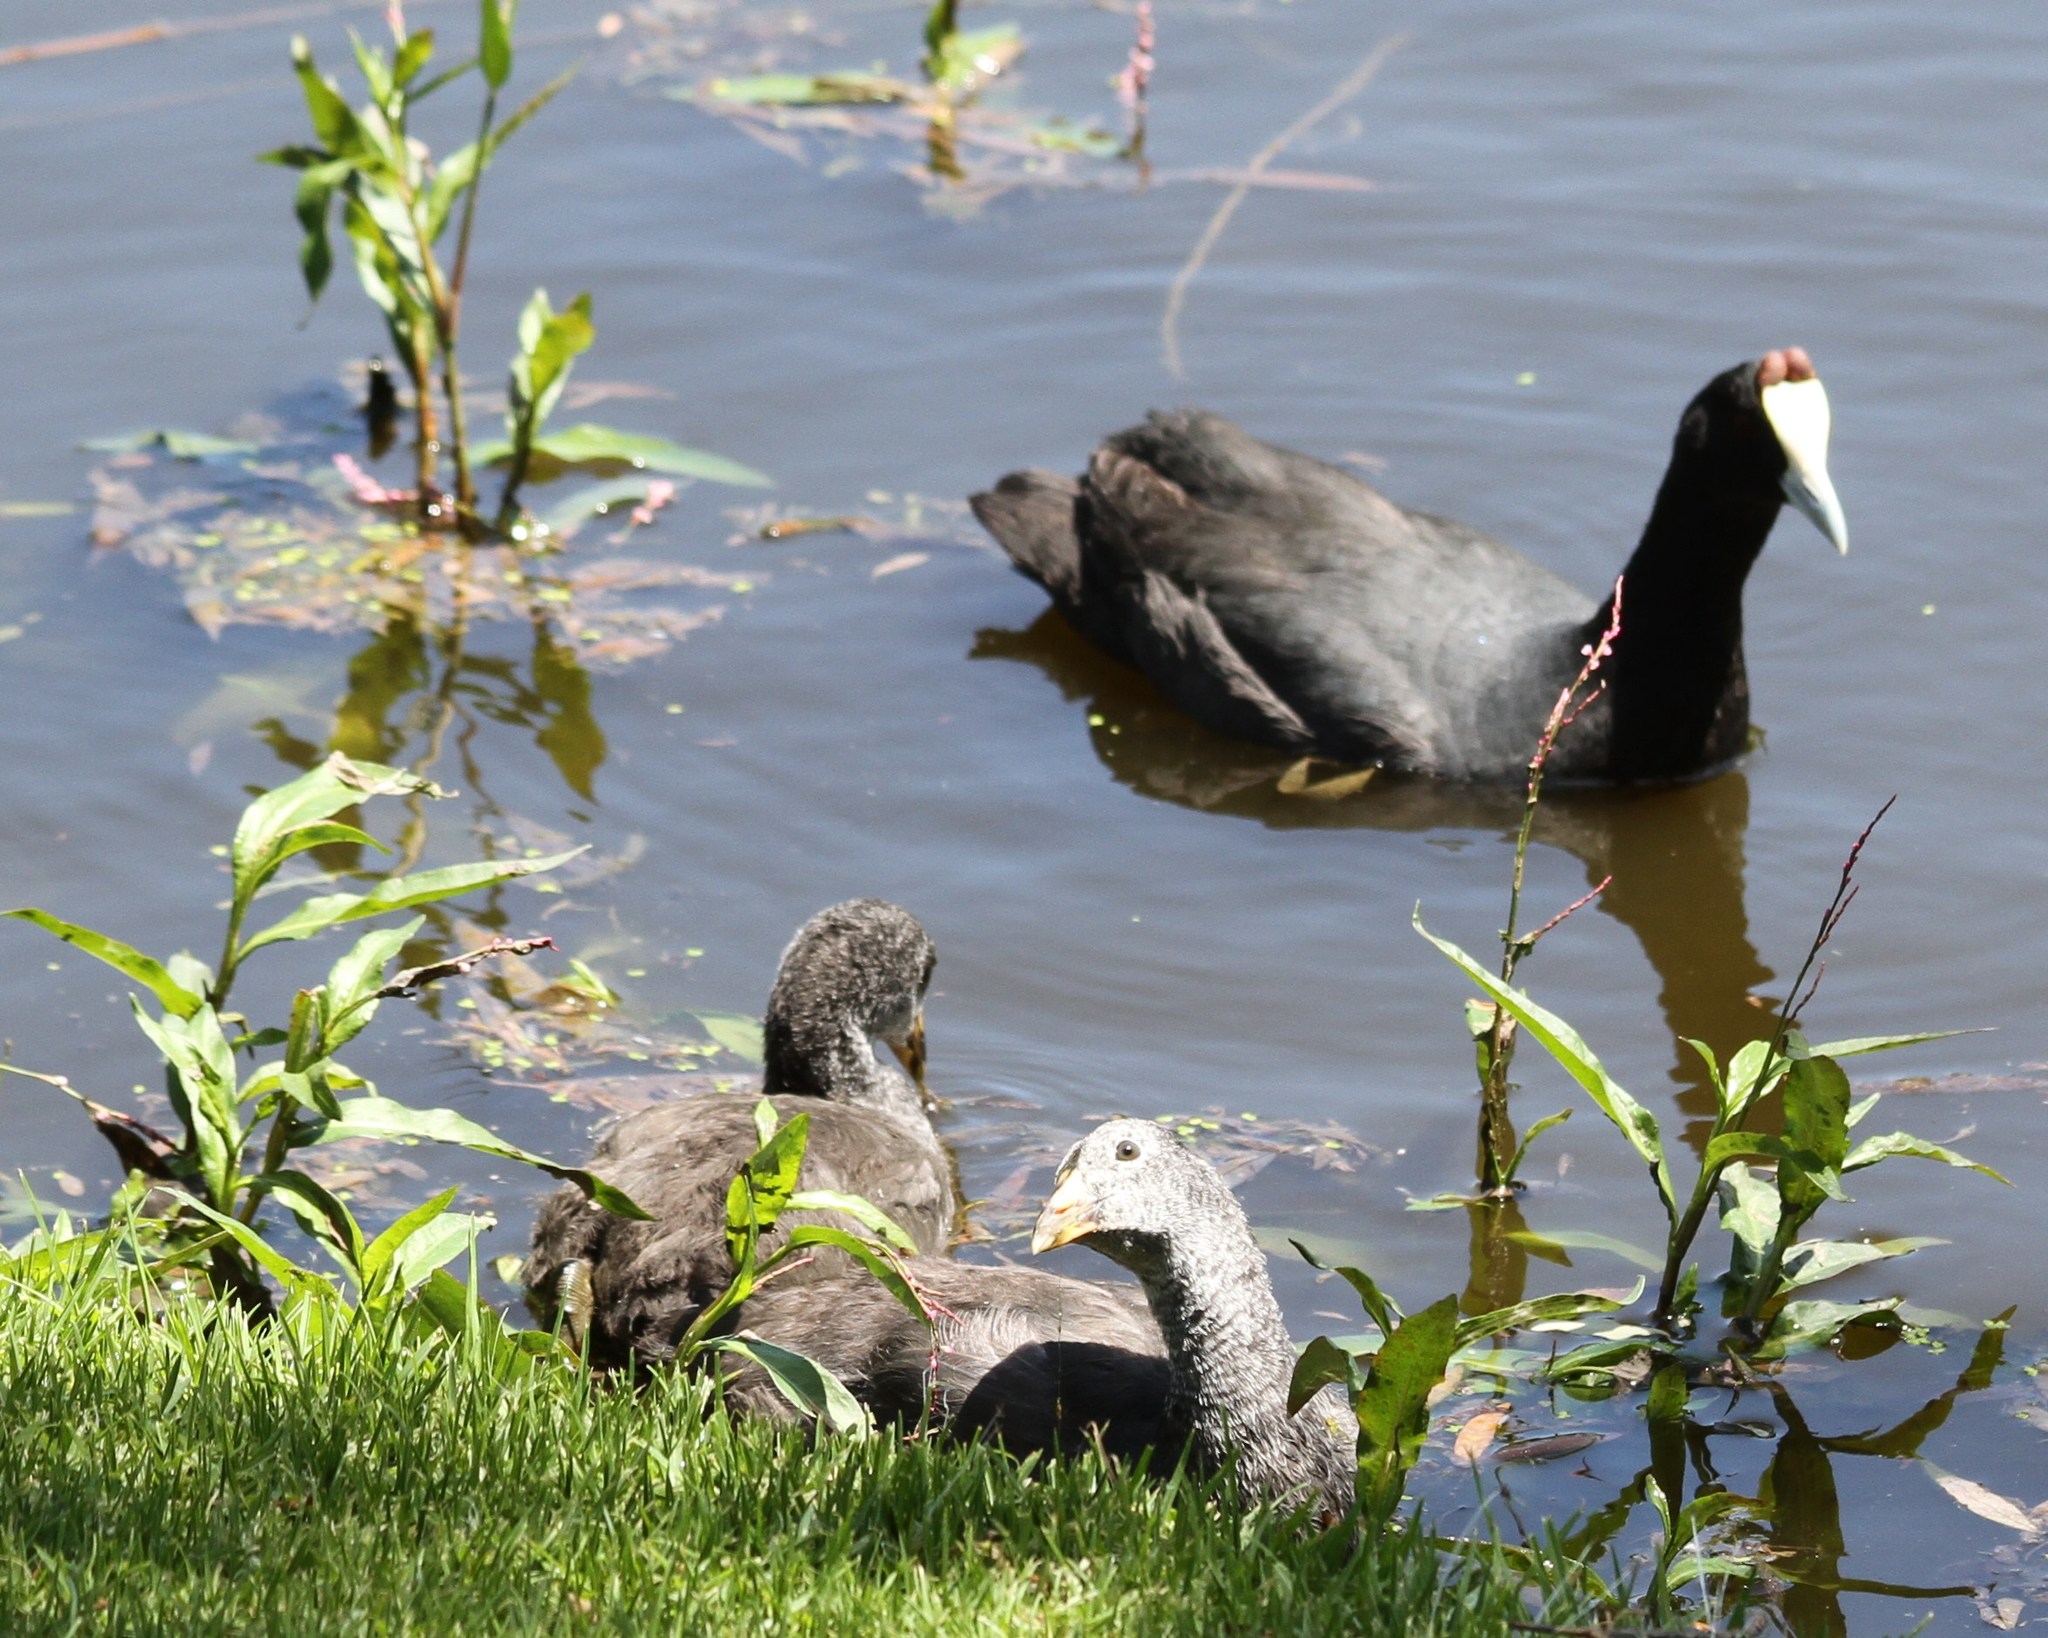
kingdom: Animalia
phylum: Chordata
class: Aves
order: Gruiformes
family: Rallidae
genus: Fulica
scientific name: Fulica cristata
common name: Red-knobbed coot
